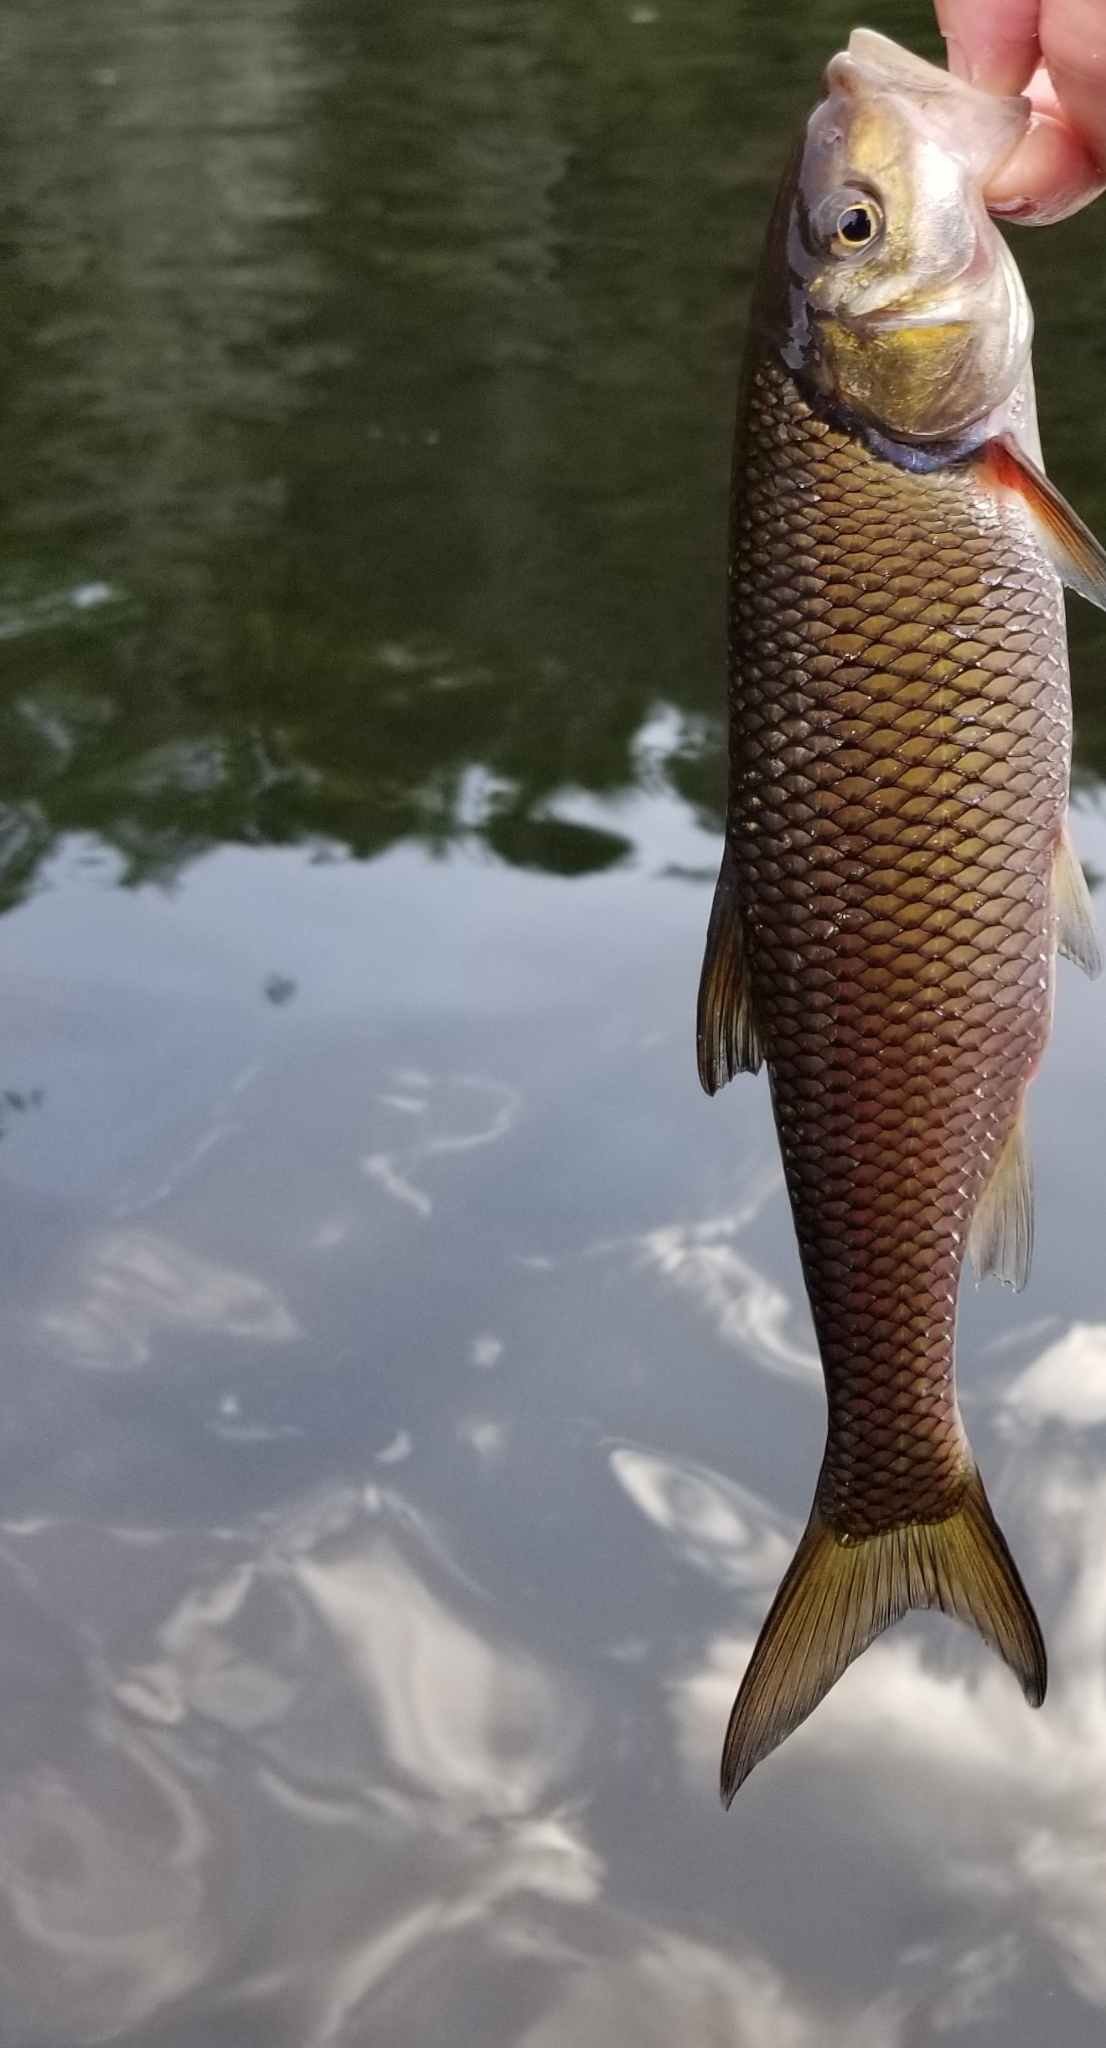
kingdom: Animalia
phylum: Chordata
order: Cypriniformes
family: Cyprinidae
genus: Semotilus
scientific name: Semotilus corporalis
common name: Fallfish
